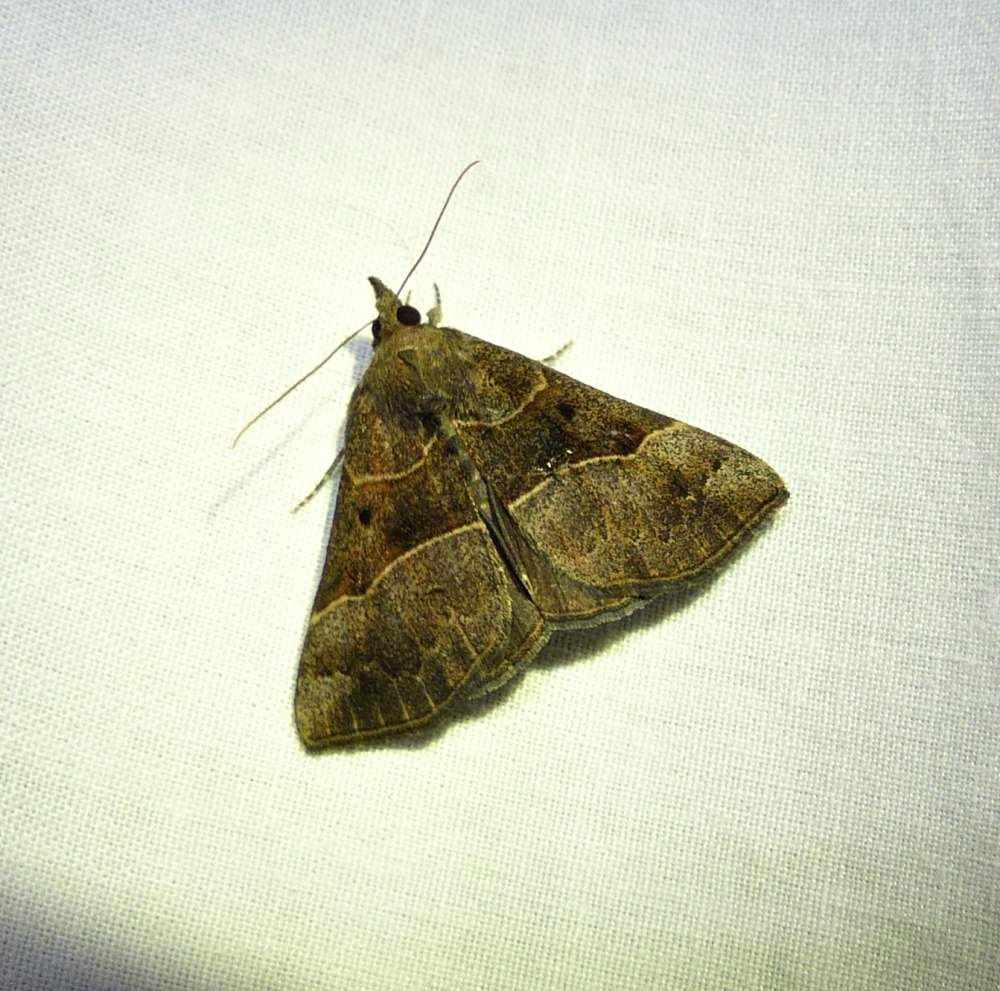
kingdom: Animalia
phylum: Arthropoda
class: Insecta
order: Lepidoptera
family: Erebidae
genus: Hypena
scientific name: Hypena deceptalis
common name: Deceptive snout
